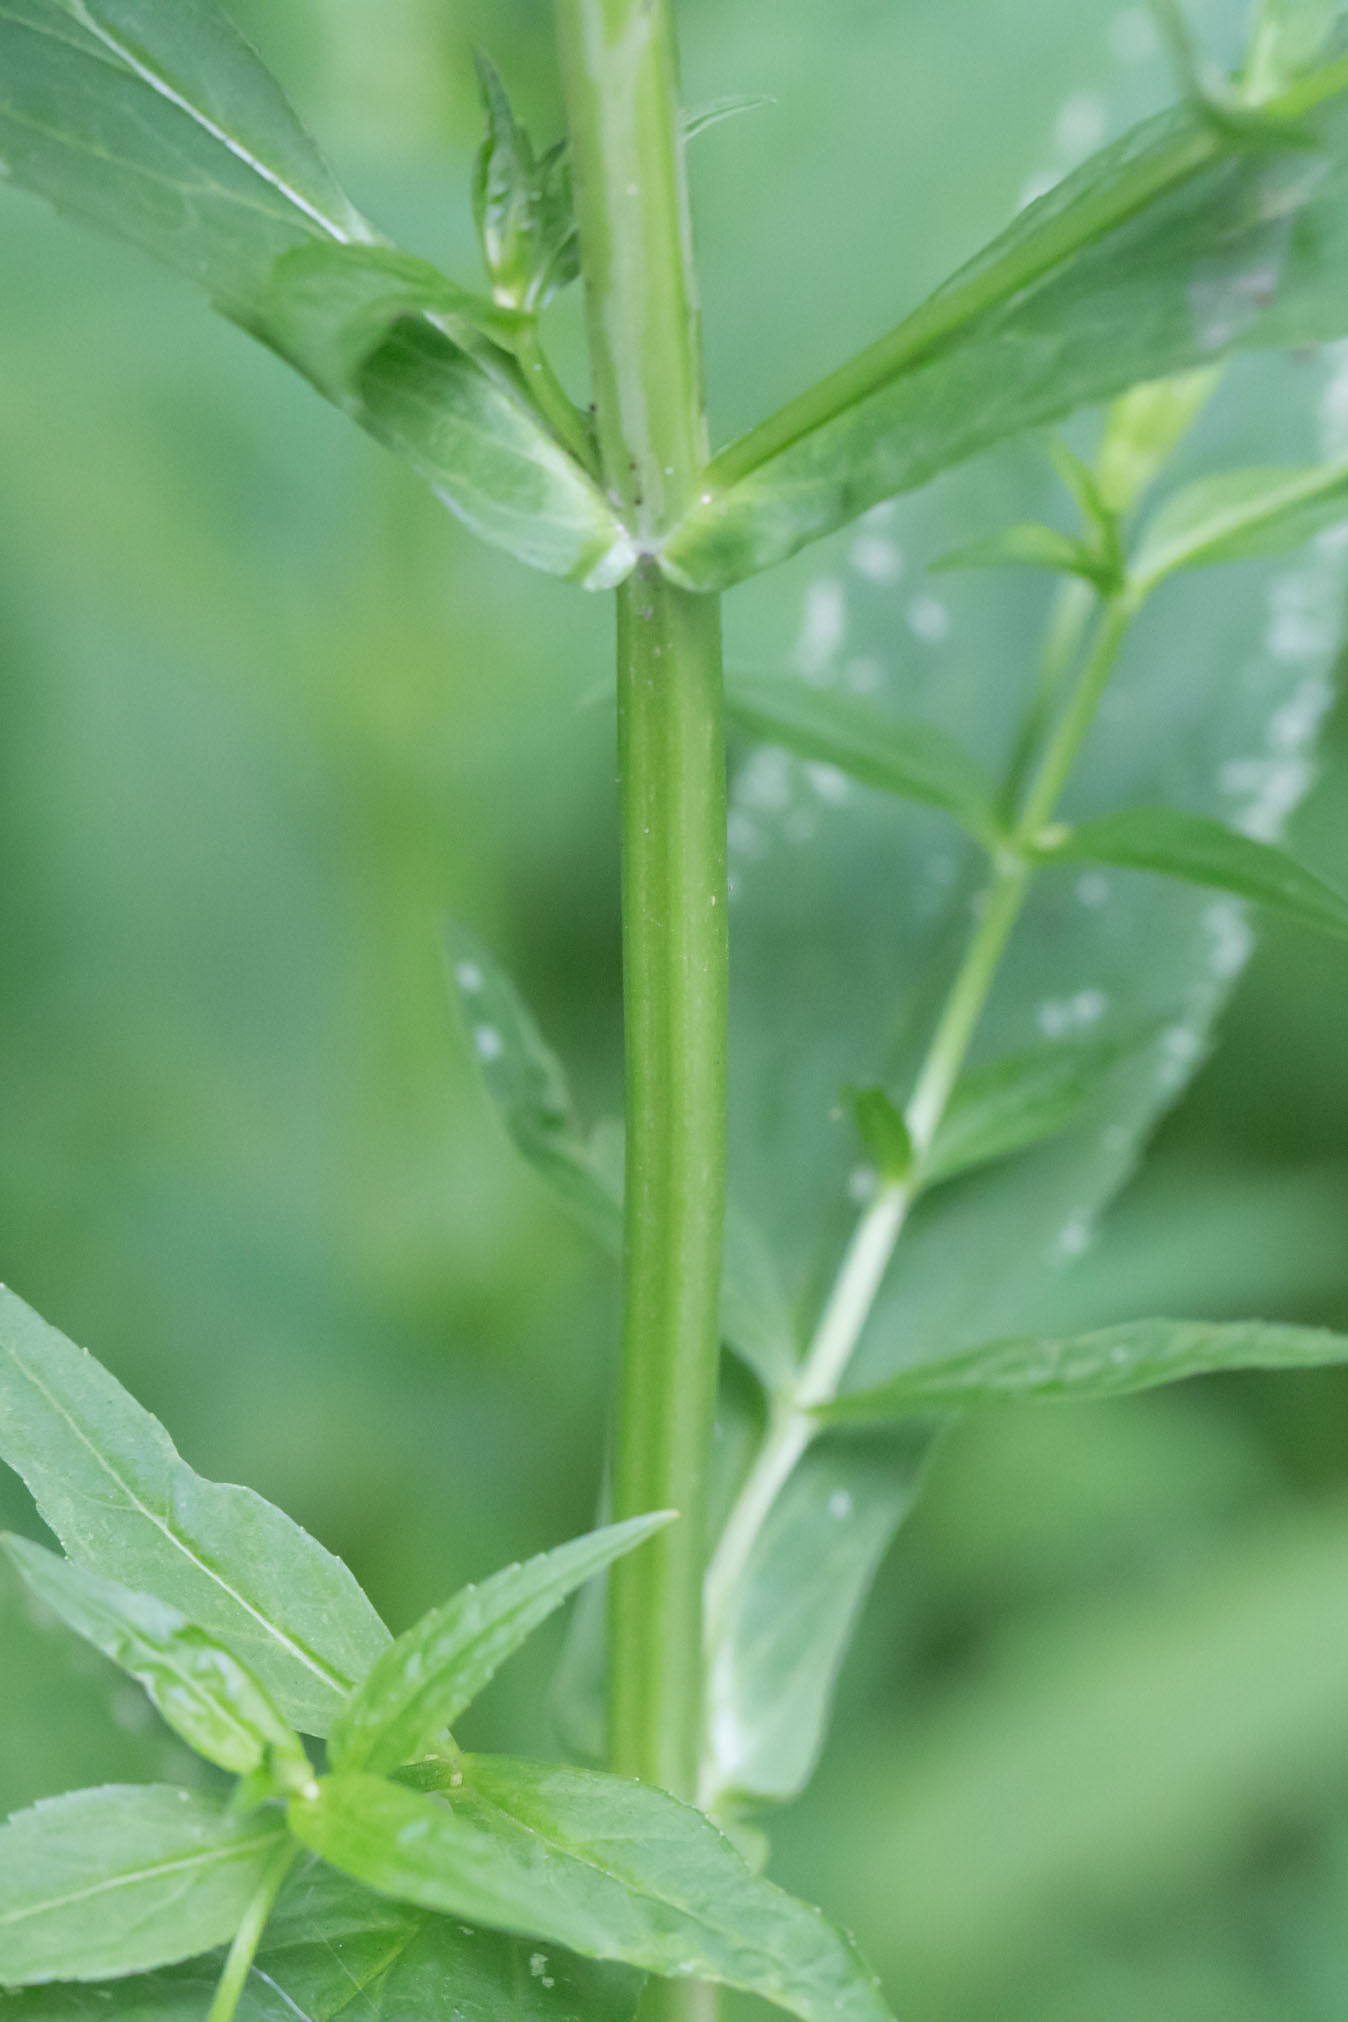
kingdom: Plantae
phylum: Tracheophyta
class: Magnoliopsida
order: Lamiales
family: Phrymaceae
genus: Mimulus
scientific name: Mimulus ringens
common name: Allegheny monkeyflower
